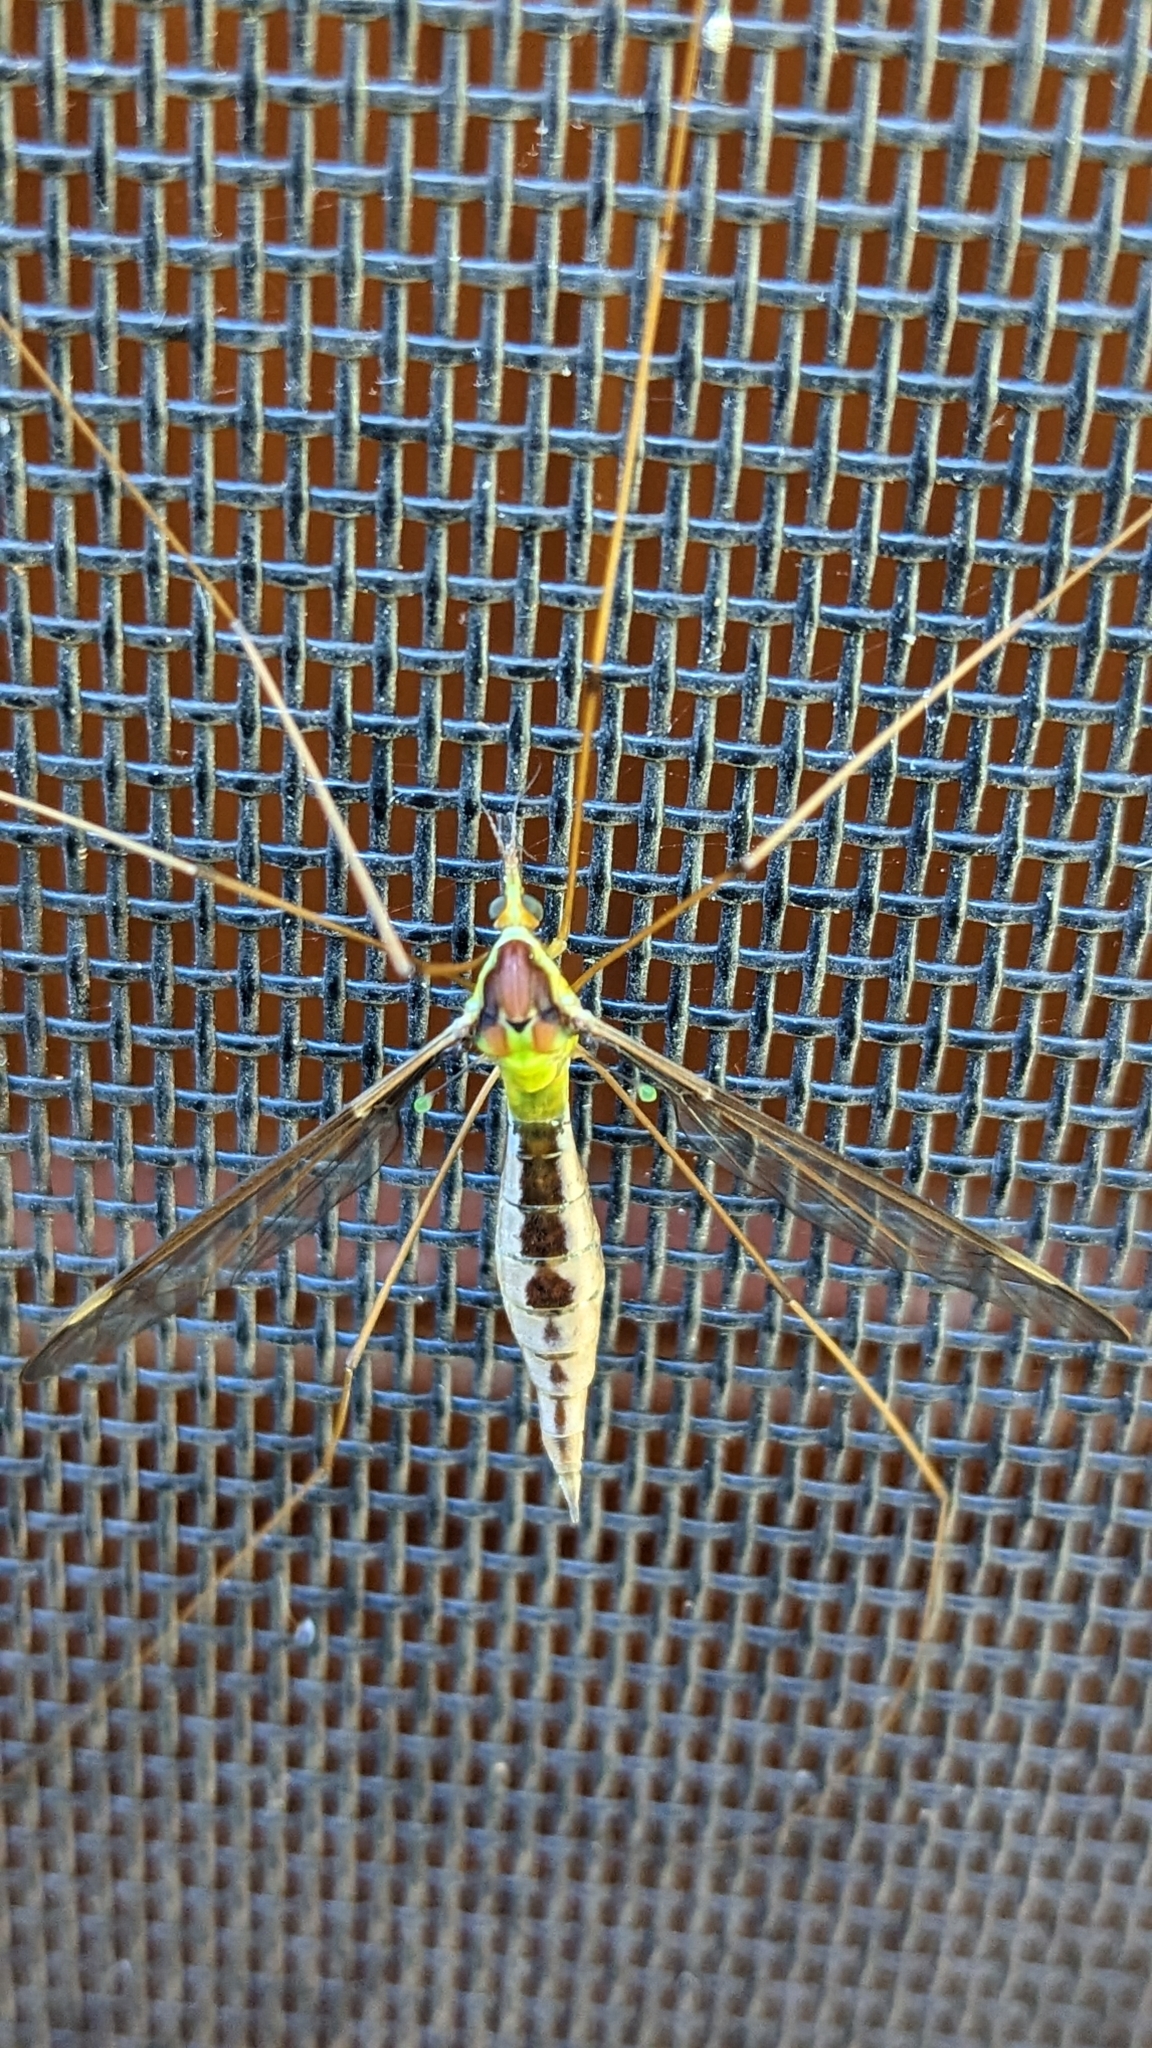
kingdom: Animalia
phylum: Arthropoda
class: Insecta
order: Diptera
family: Tipulidae
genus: Leptotarsus
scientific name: Leptotarsus albistigma
